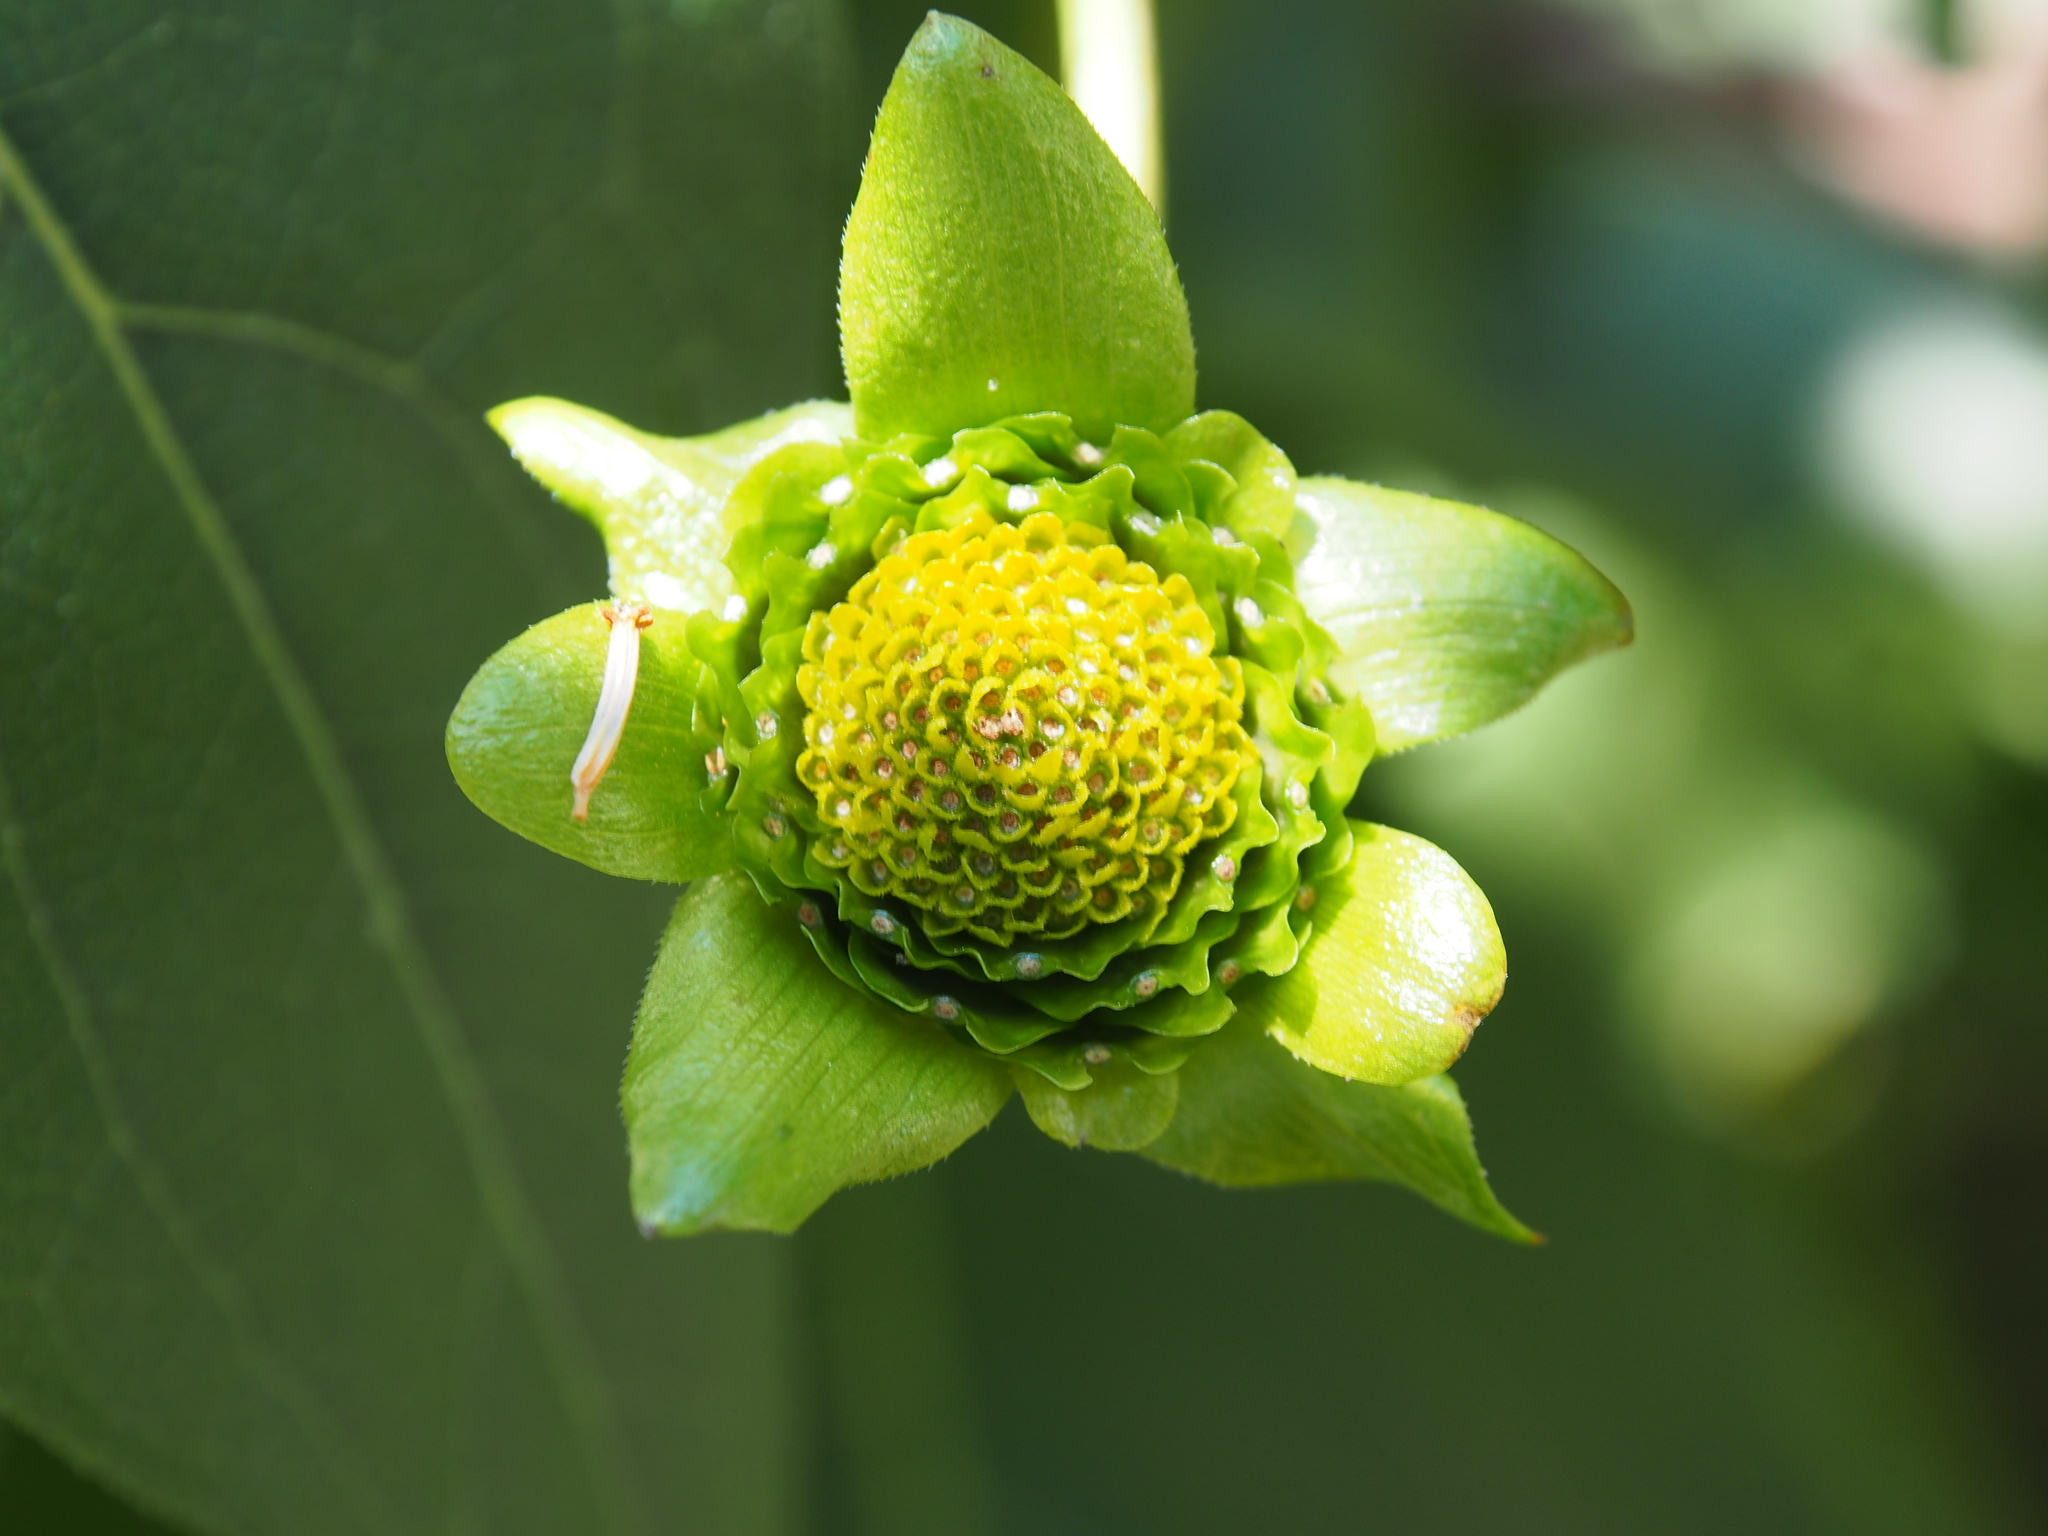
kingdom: Plantae
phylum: Tracheophyta
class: Magnoliopsida
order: Asterales
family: Asteraceae
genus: Silphium
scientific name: Silphium perfoliatum
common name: Cup-plant
